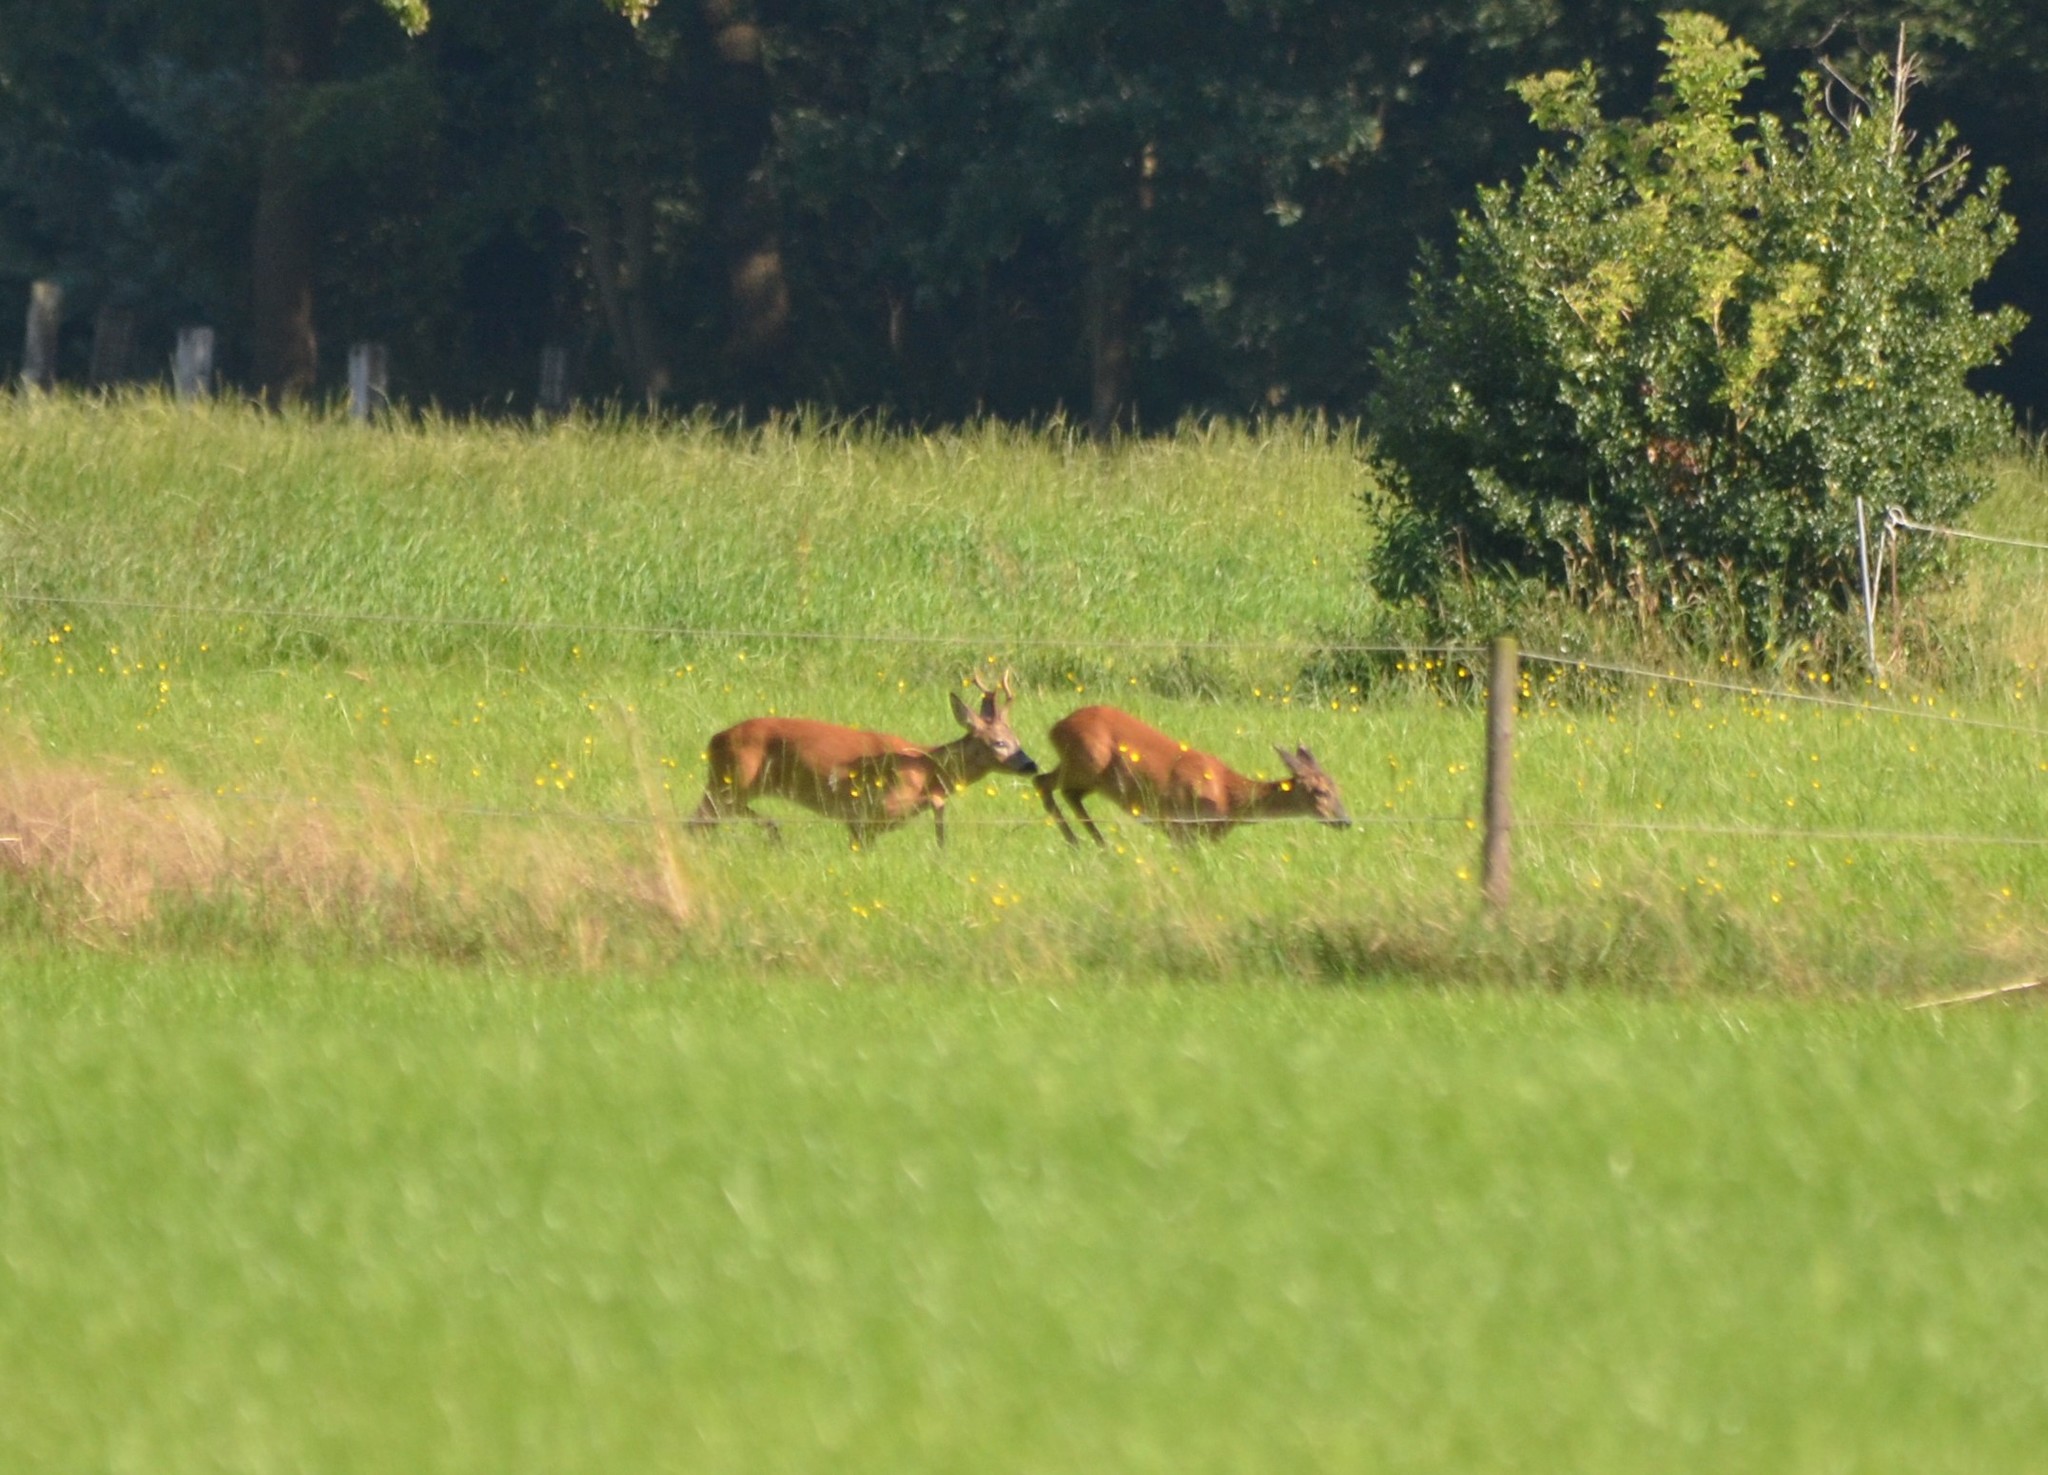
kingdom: Animalia
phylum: Chordata
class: Mammalia
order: Artiodactyla
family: Cervidae
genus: Capreolus
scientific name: Capreolus capreolus
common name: Western roe deer
